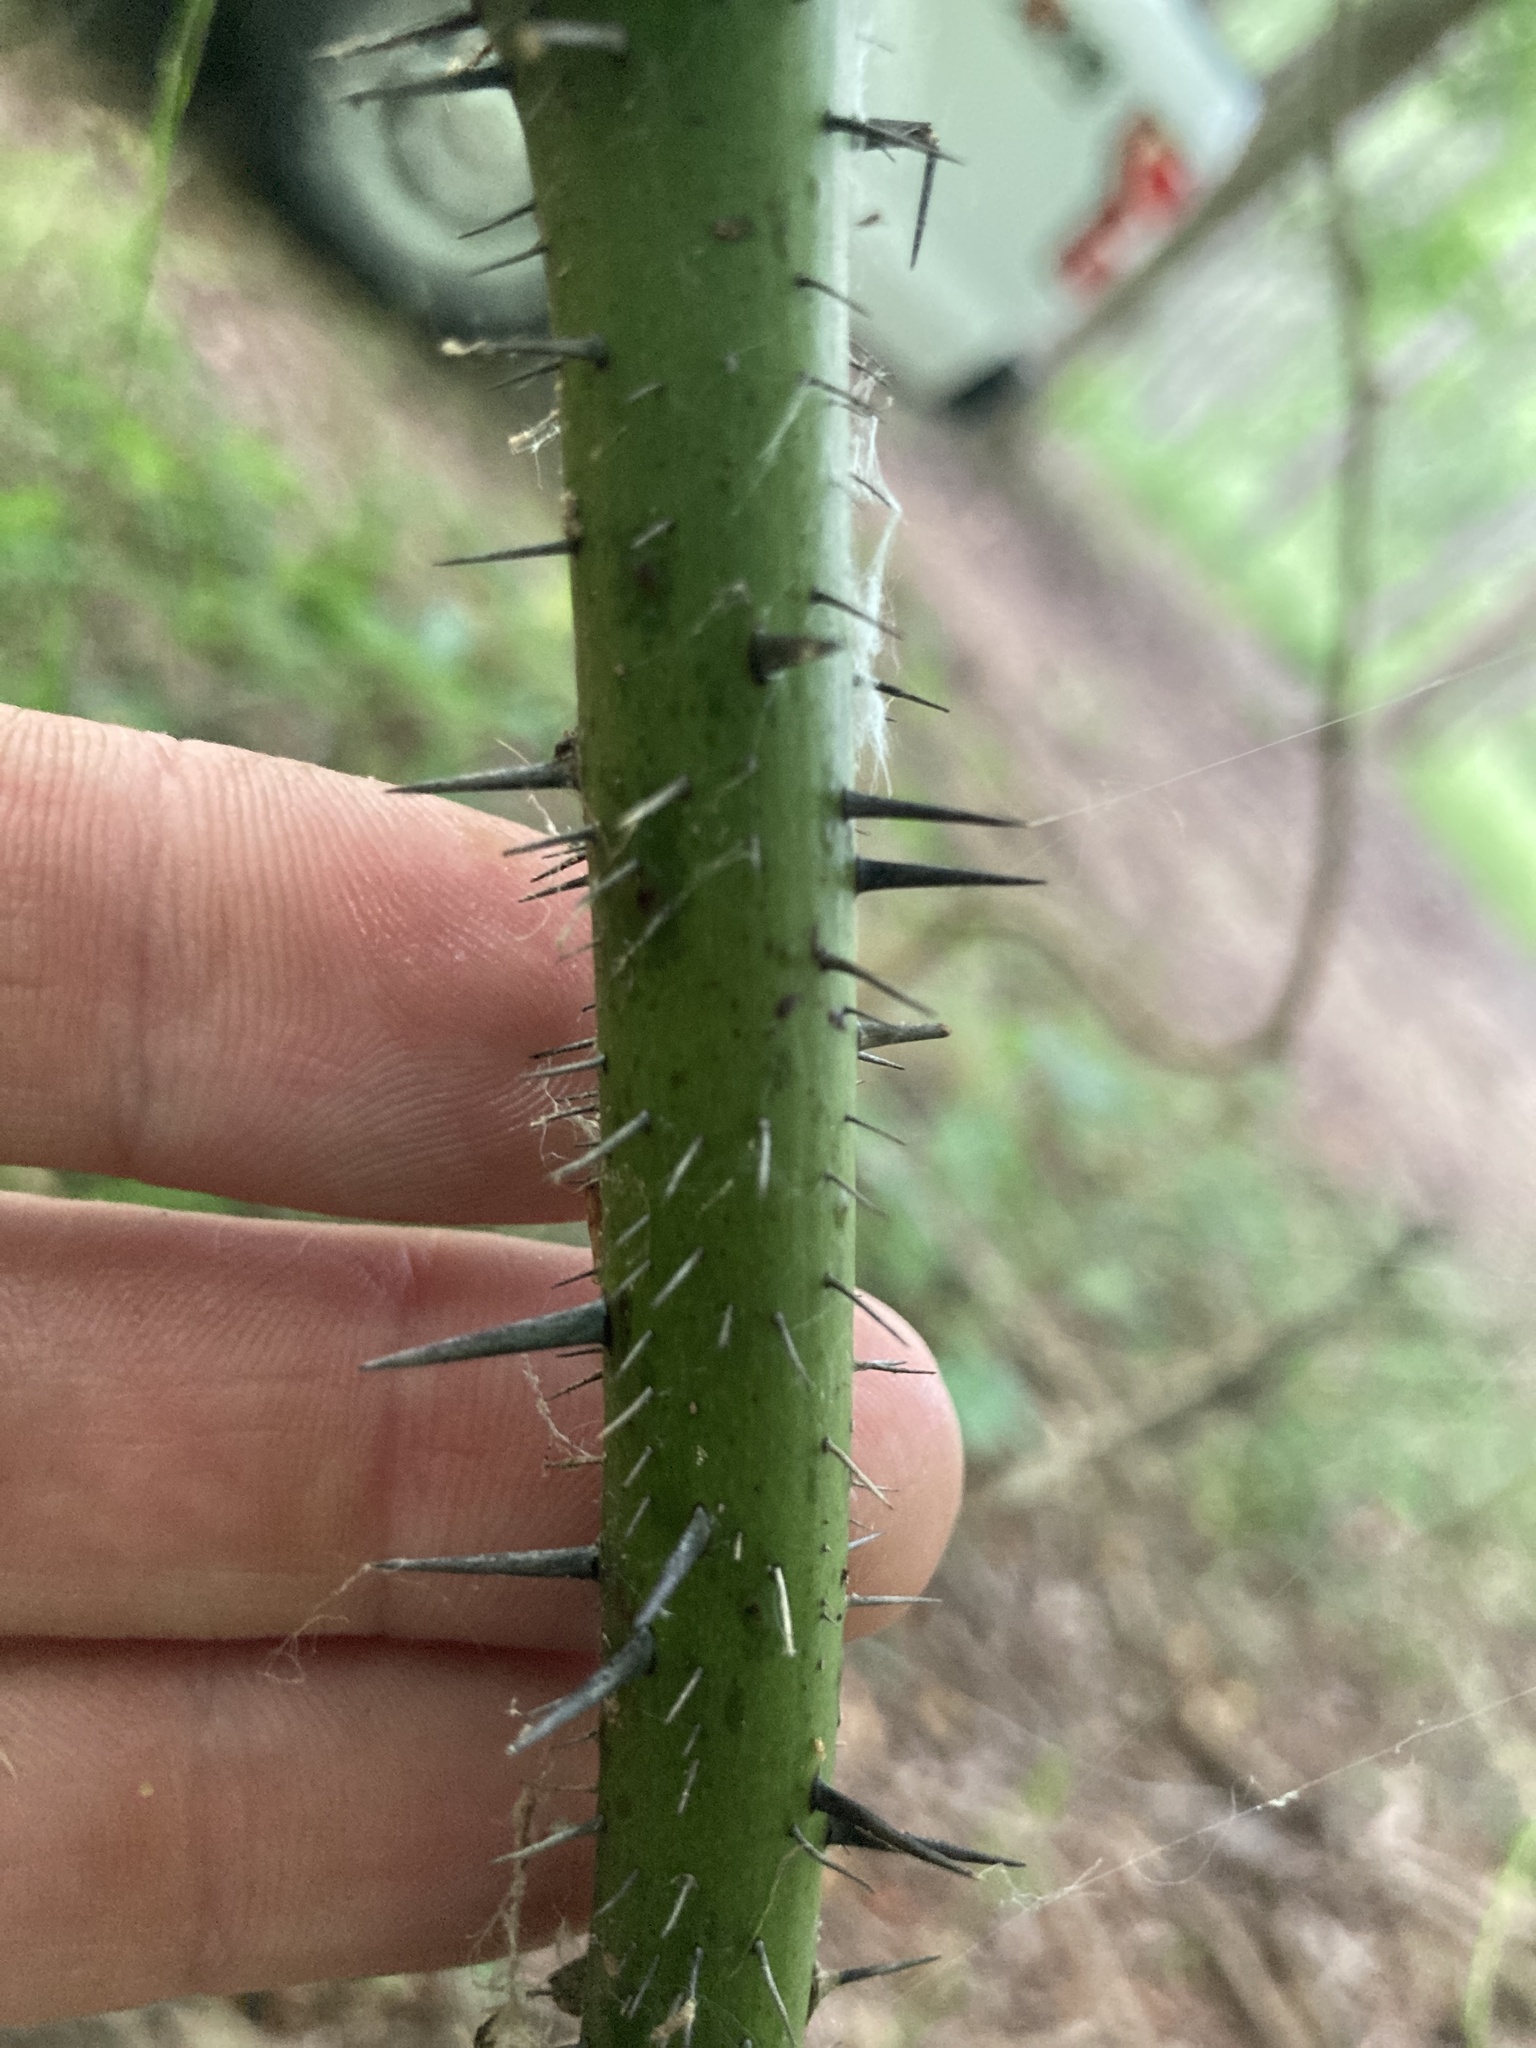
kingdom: Plantae
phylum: Tracheophyta
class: Liliopsida
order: Liliales
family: Smilacaceae
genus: Smilax
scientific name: Smilax tamnoides
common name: Hellfetter
